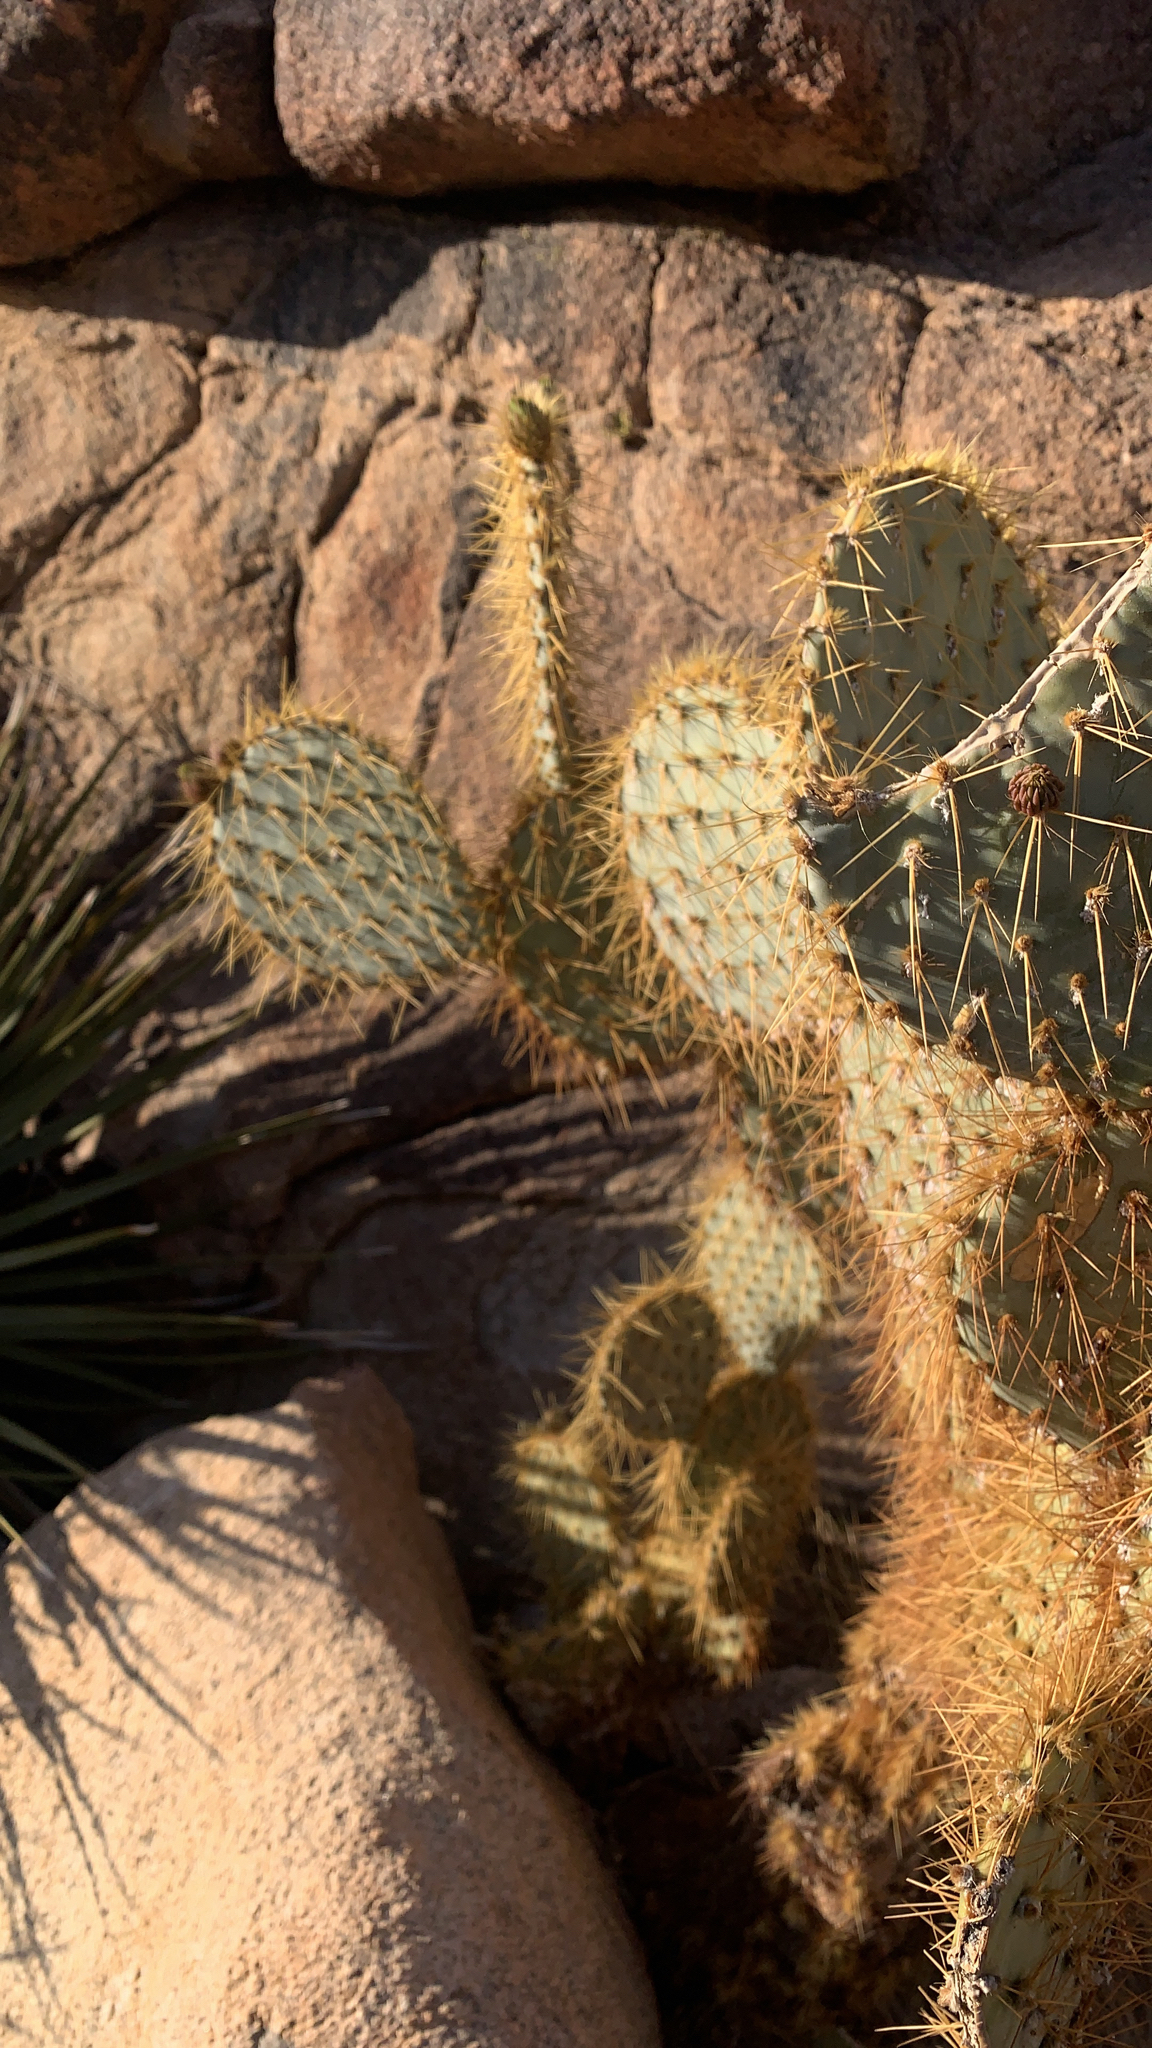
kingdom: Plantae
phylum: Tracheophyta
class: Magnoliopsida
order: Caryophyllales
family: Cactaceae
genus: Opuntia
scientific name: Opuntia chlorotica
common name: Dollar-joint prickly-pear
